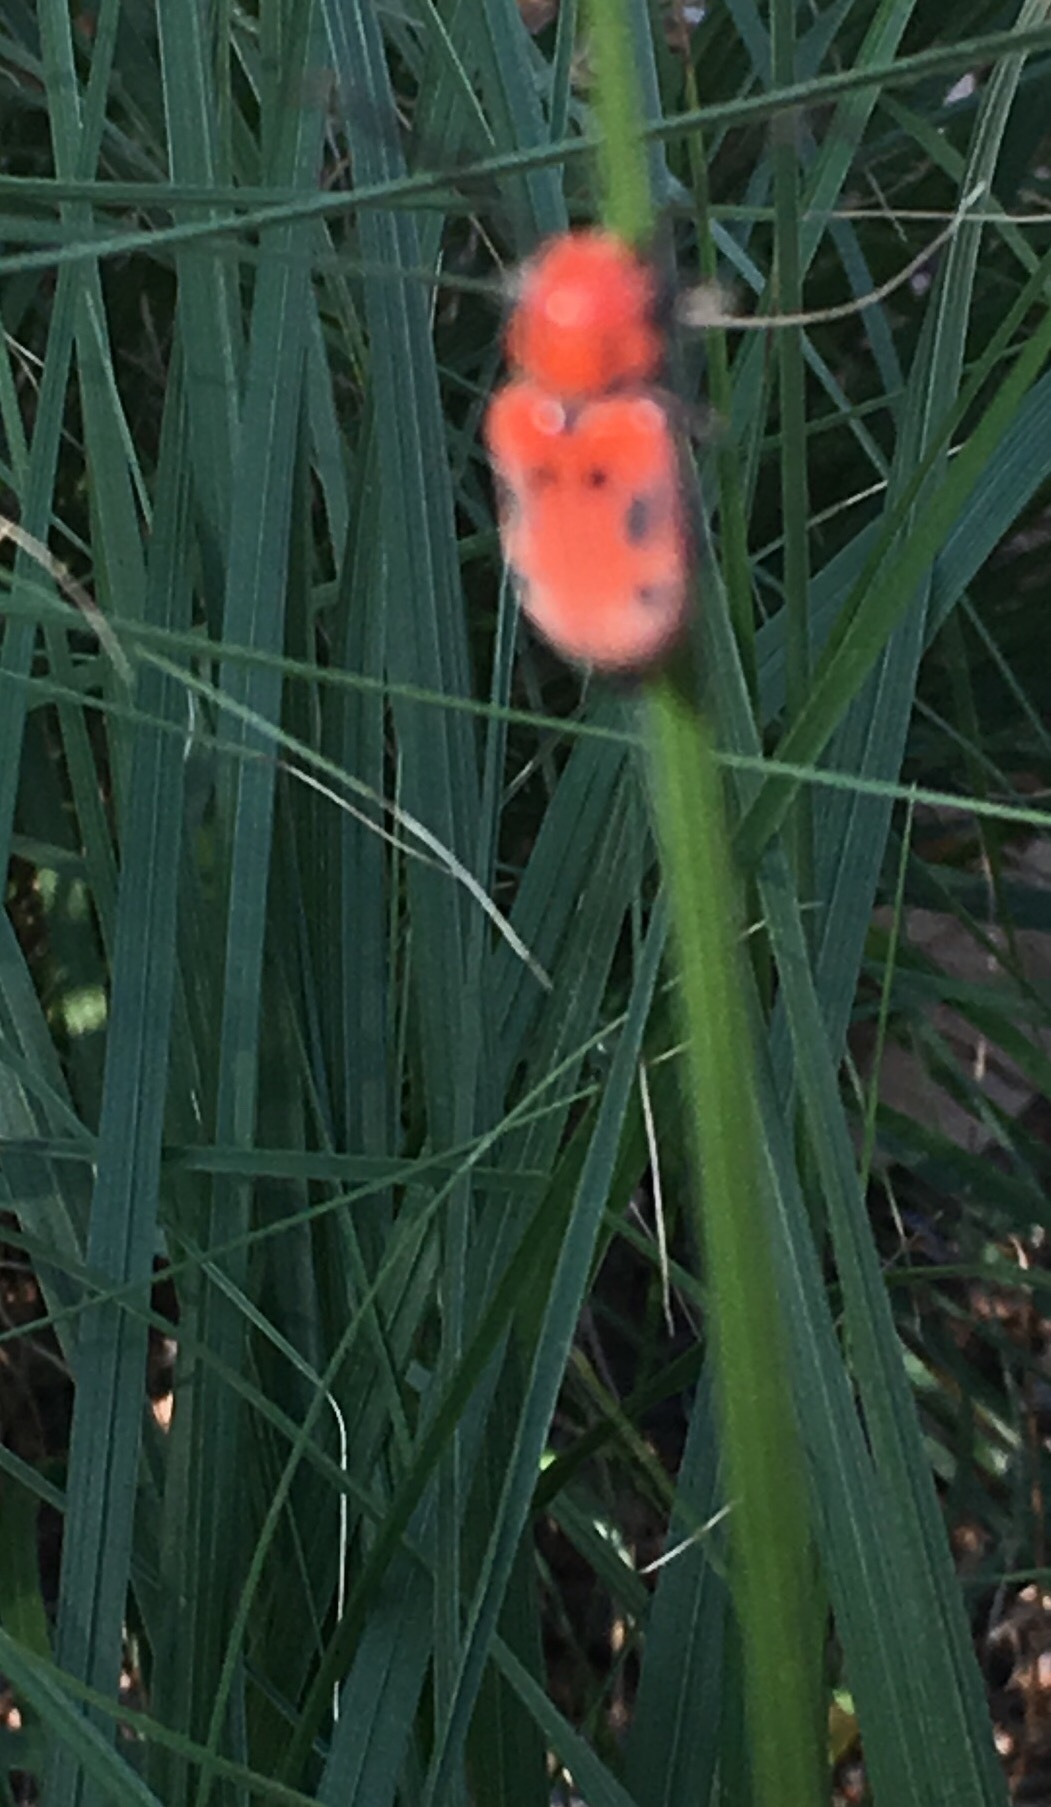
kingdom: Animalia
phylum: Arthropoda
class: Insecta
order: Coleoptera
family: Cerambycidae
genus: Tetraopes
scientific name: Tetraopes tetrophthalmus
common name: Red milkweed beetle
